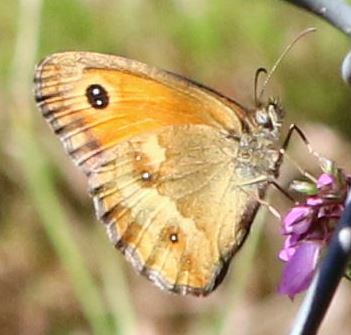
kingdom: Animalia
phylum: Arthropoda
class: Insecta
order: Lepidoptera
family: Nymphalidae
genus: Pyronia
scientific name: Pyronia tithonus
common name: Gatekeeper
